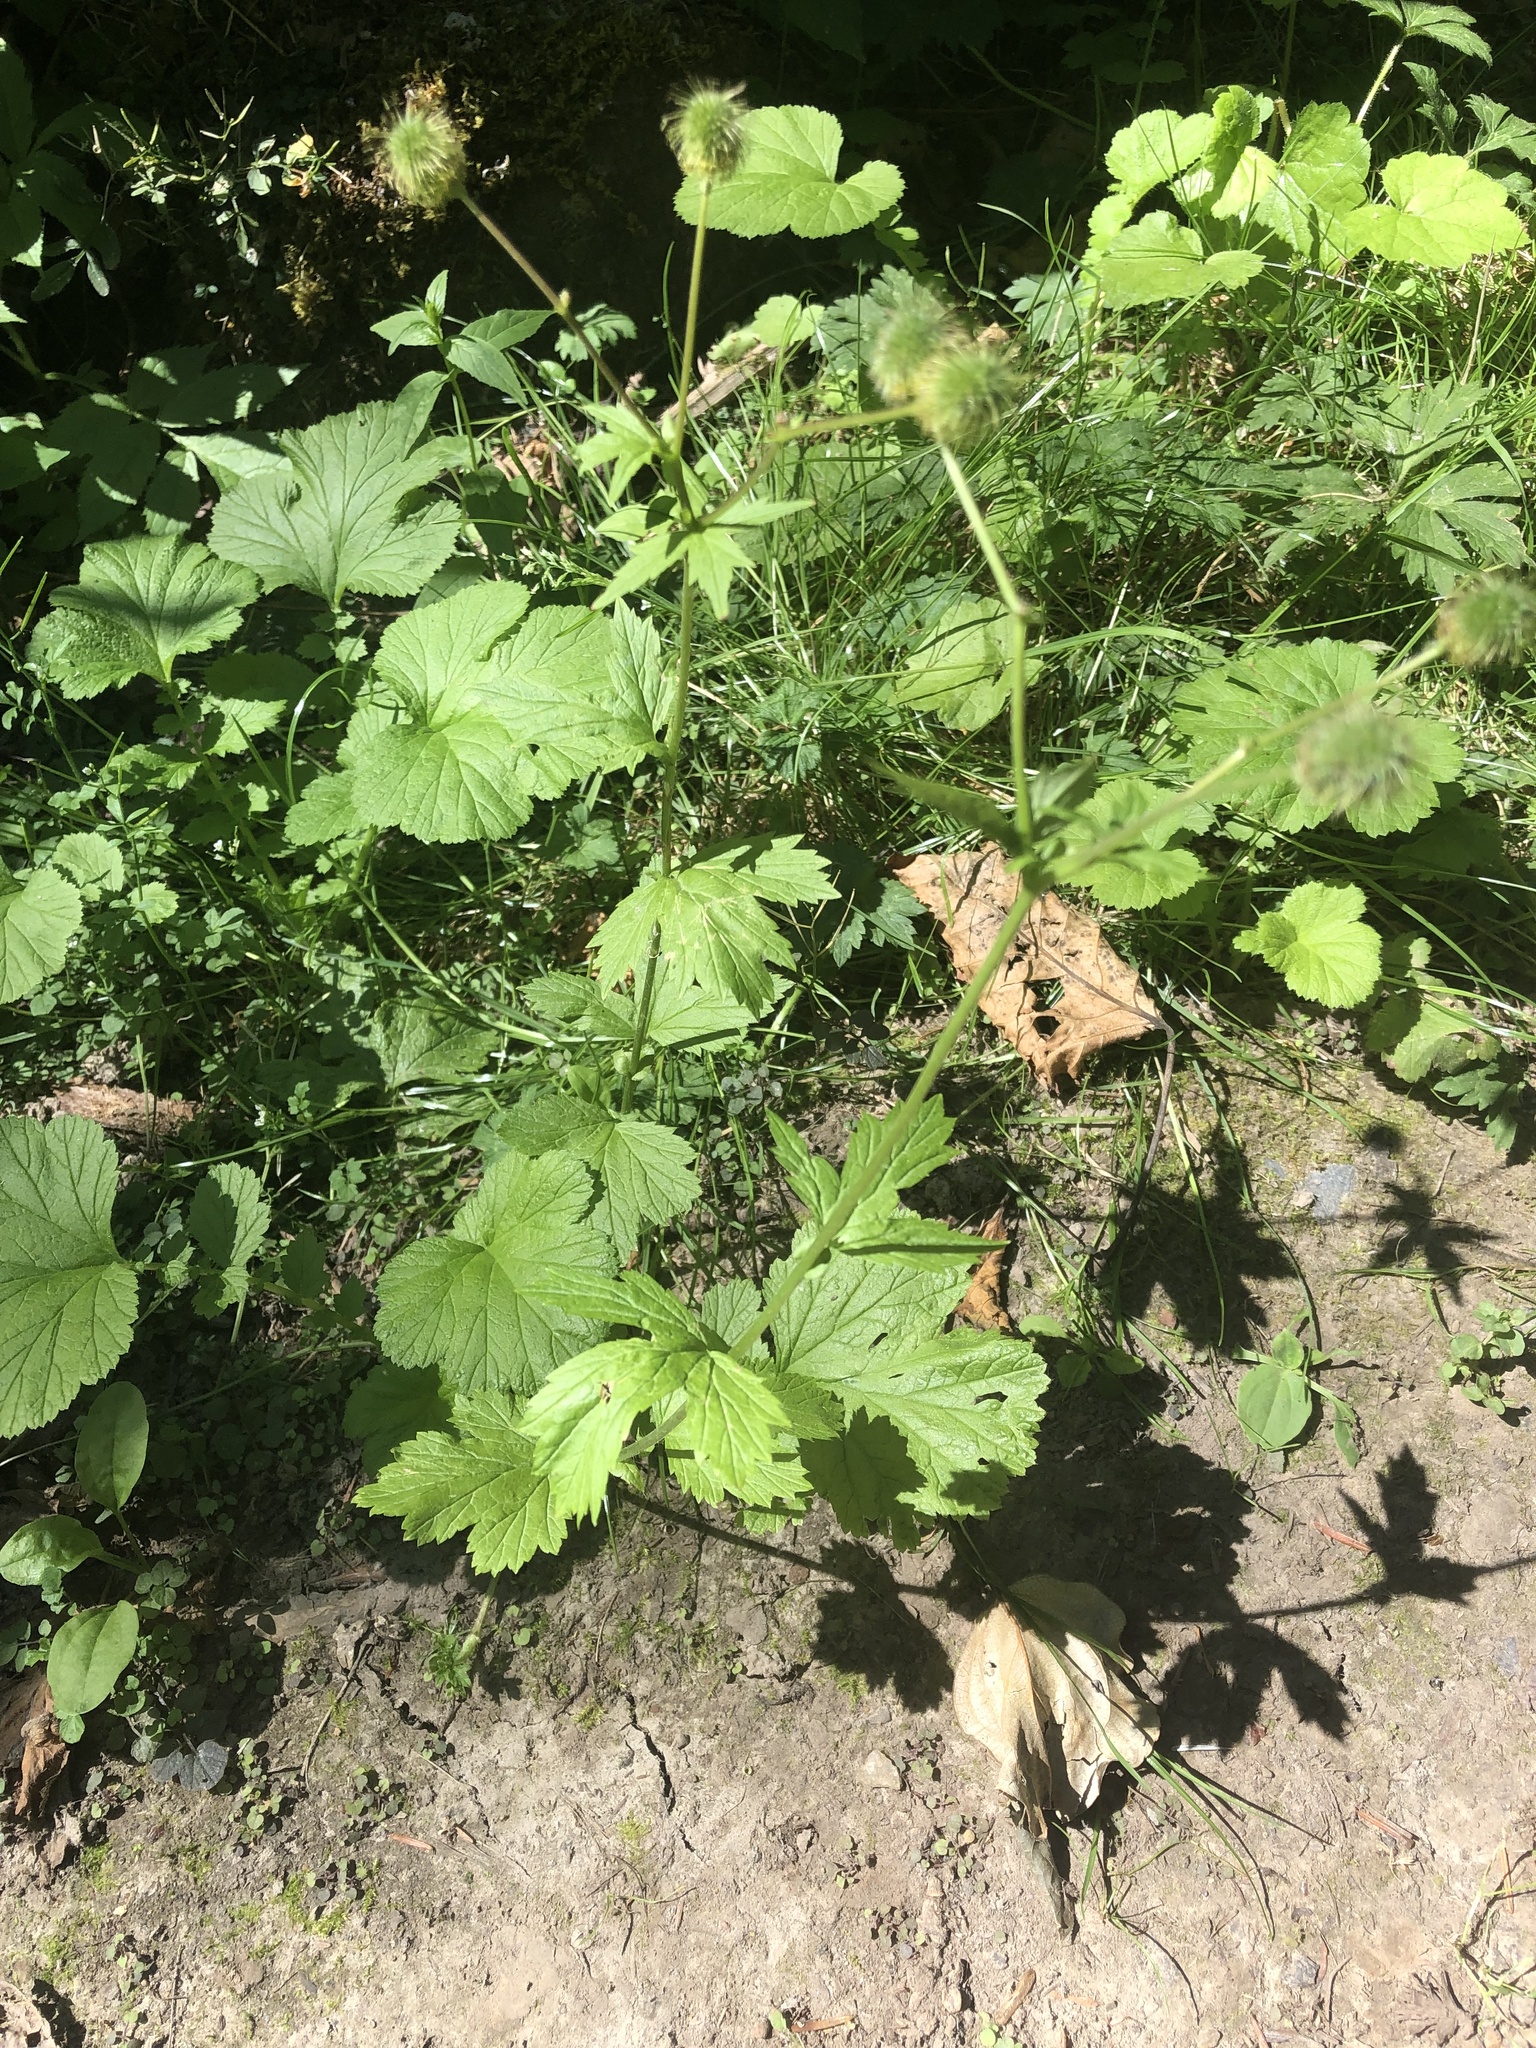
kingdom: Plantae
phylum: Tracheophyta
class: Magnoliopsida
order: Rosales
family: Rosaceae
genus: Geum
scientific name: Geum macrophyllum
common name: Large-leaved avens
